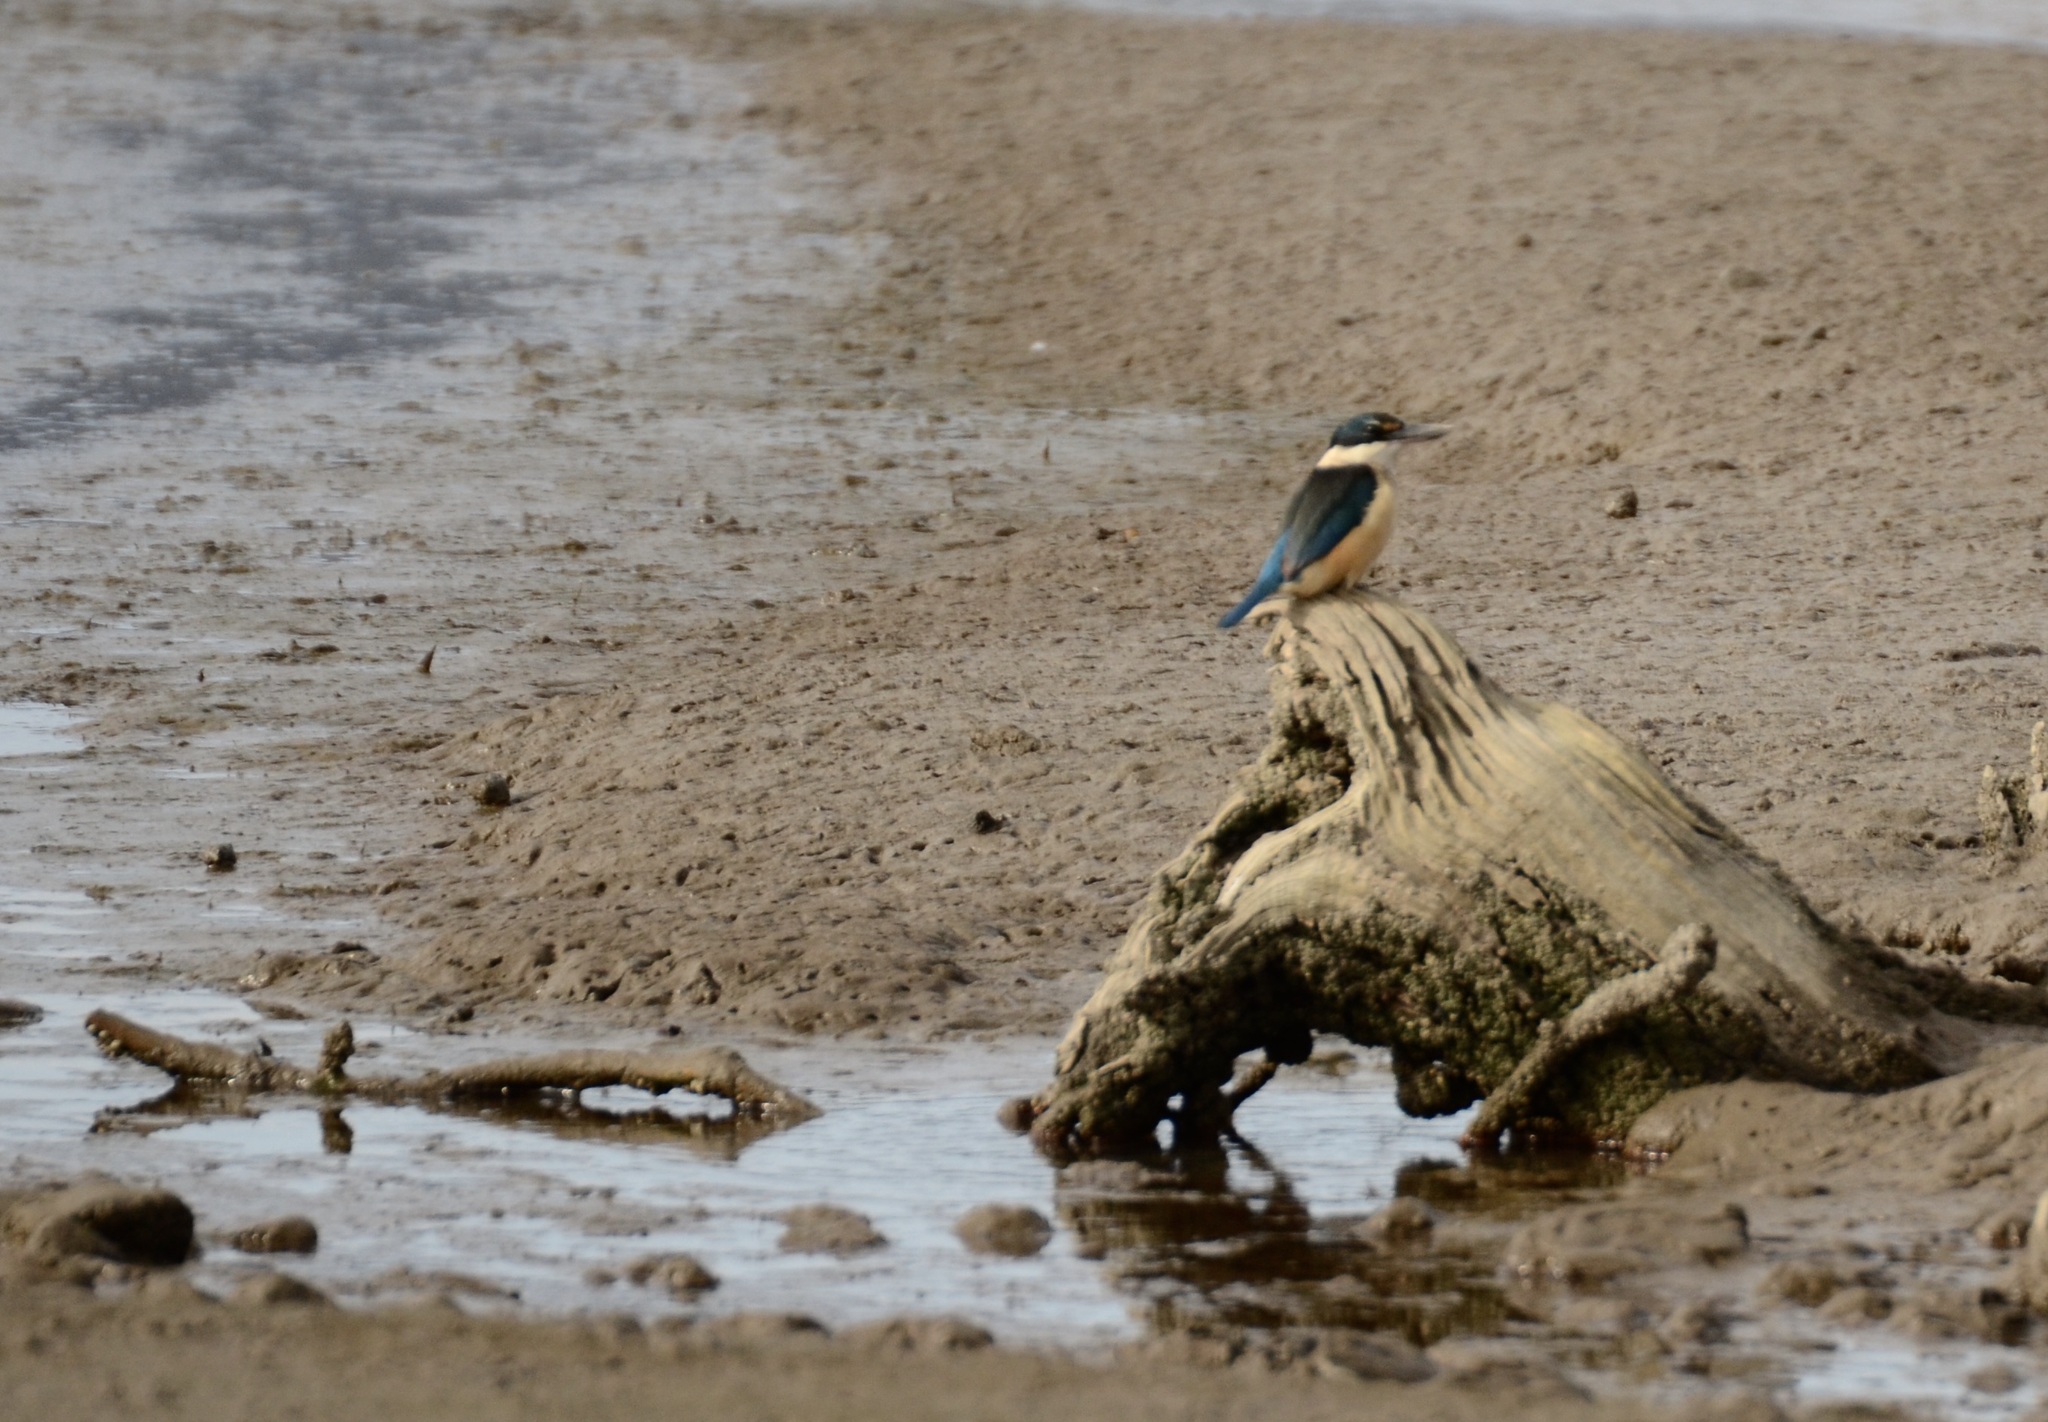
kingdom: Animalia
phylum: Chordata
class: Aves
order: Coraciiformes
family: Alcedinidae
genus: Todiramphus
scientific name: Todiramphus sanctus
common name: Sacred kingfisher
